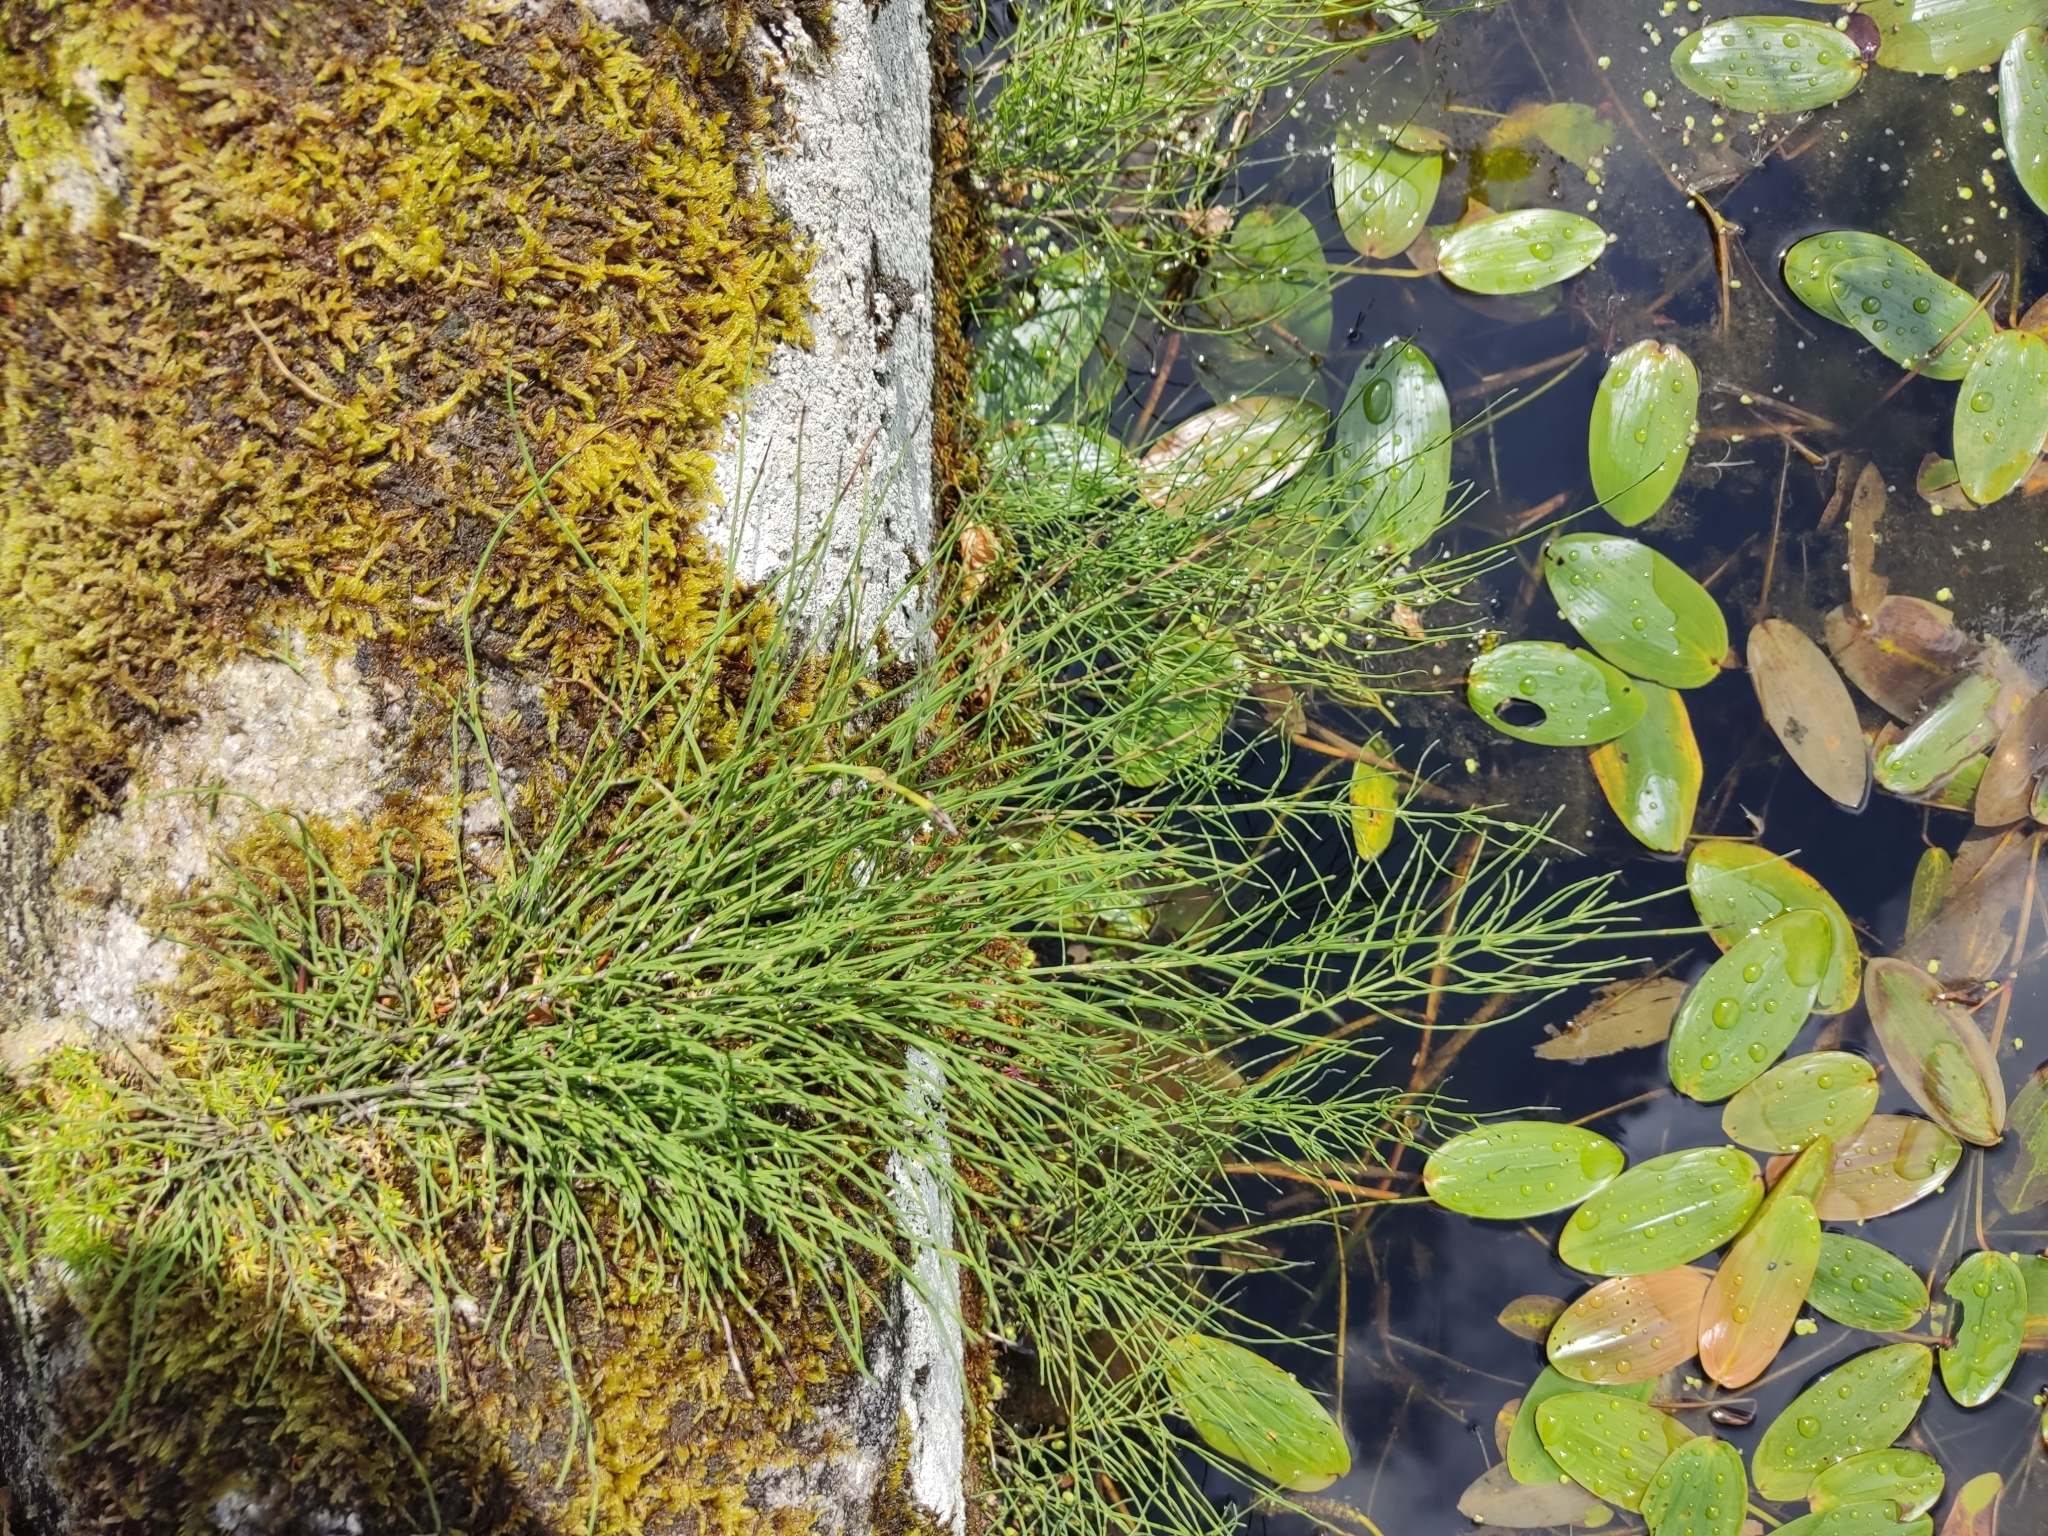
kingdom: Plantae
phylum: Tracheophyta
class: Polypodiopsida
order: Equisetales
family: Equisetaceae
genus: Equisetum
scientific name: Equisetum arvense
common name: Field horsetail
